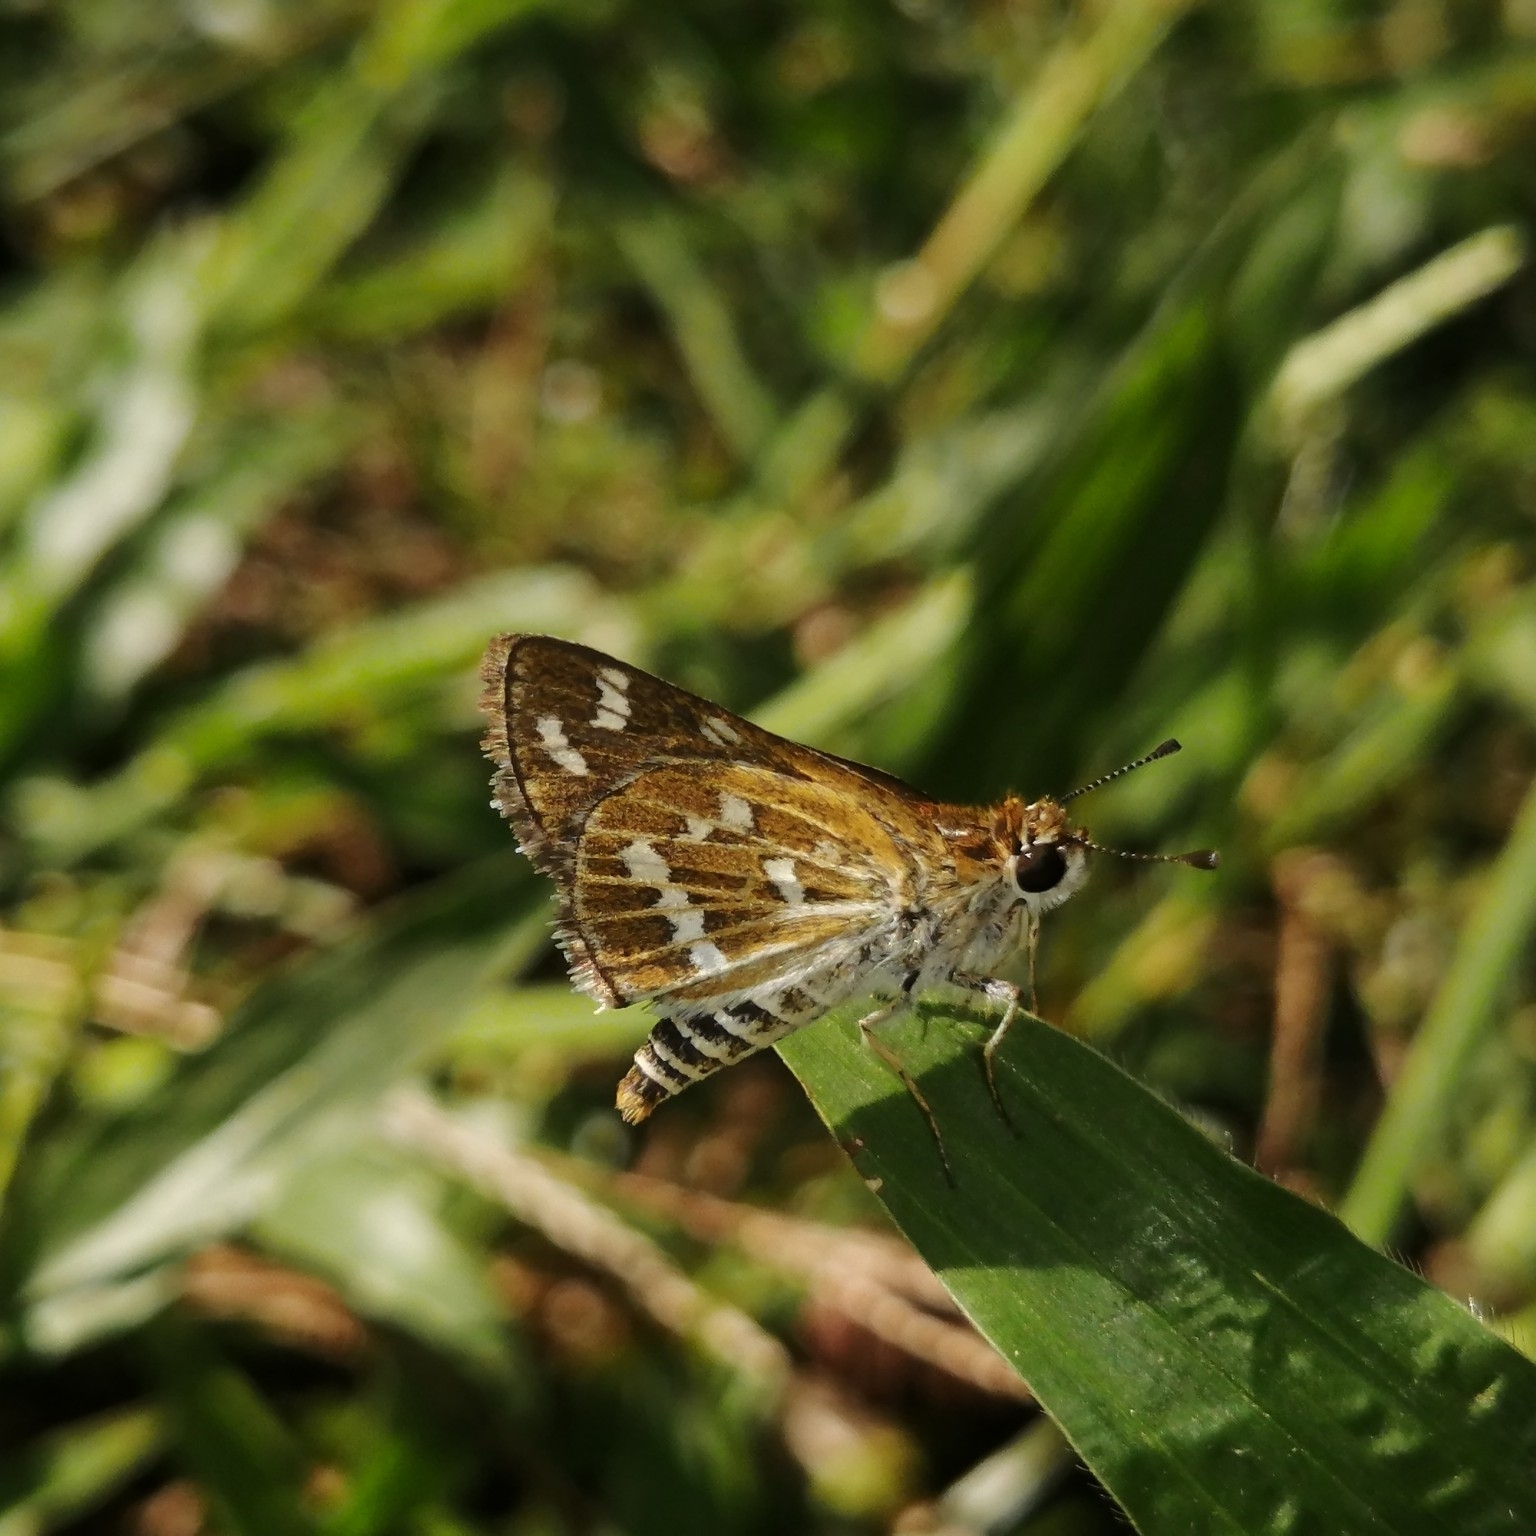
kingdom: Animalia
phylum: Arthropoda
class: Insecta
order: Lepidoptera
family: Hesperiidae
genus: Taractrocera
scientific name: Taractrocera maevius
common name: Common grass-dart
